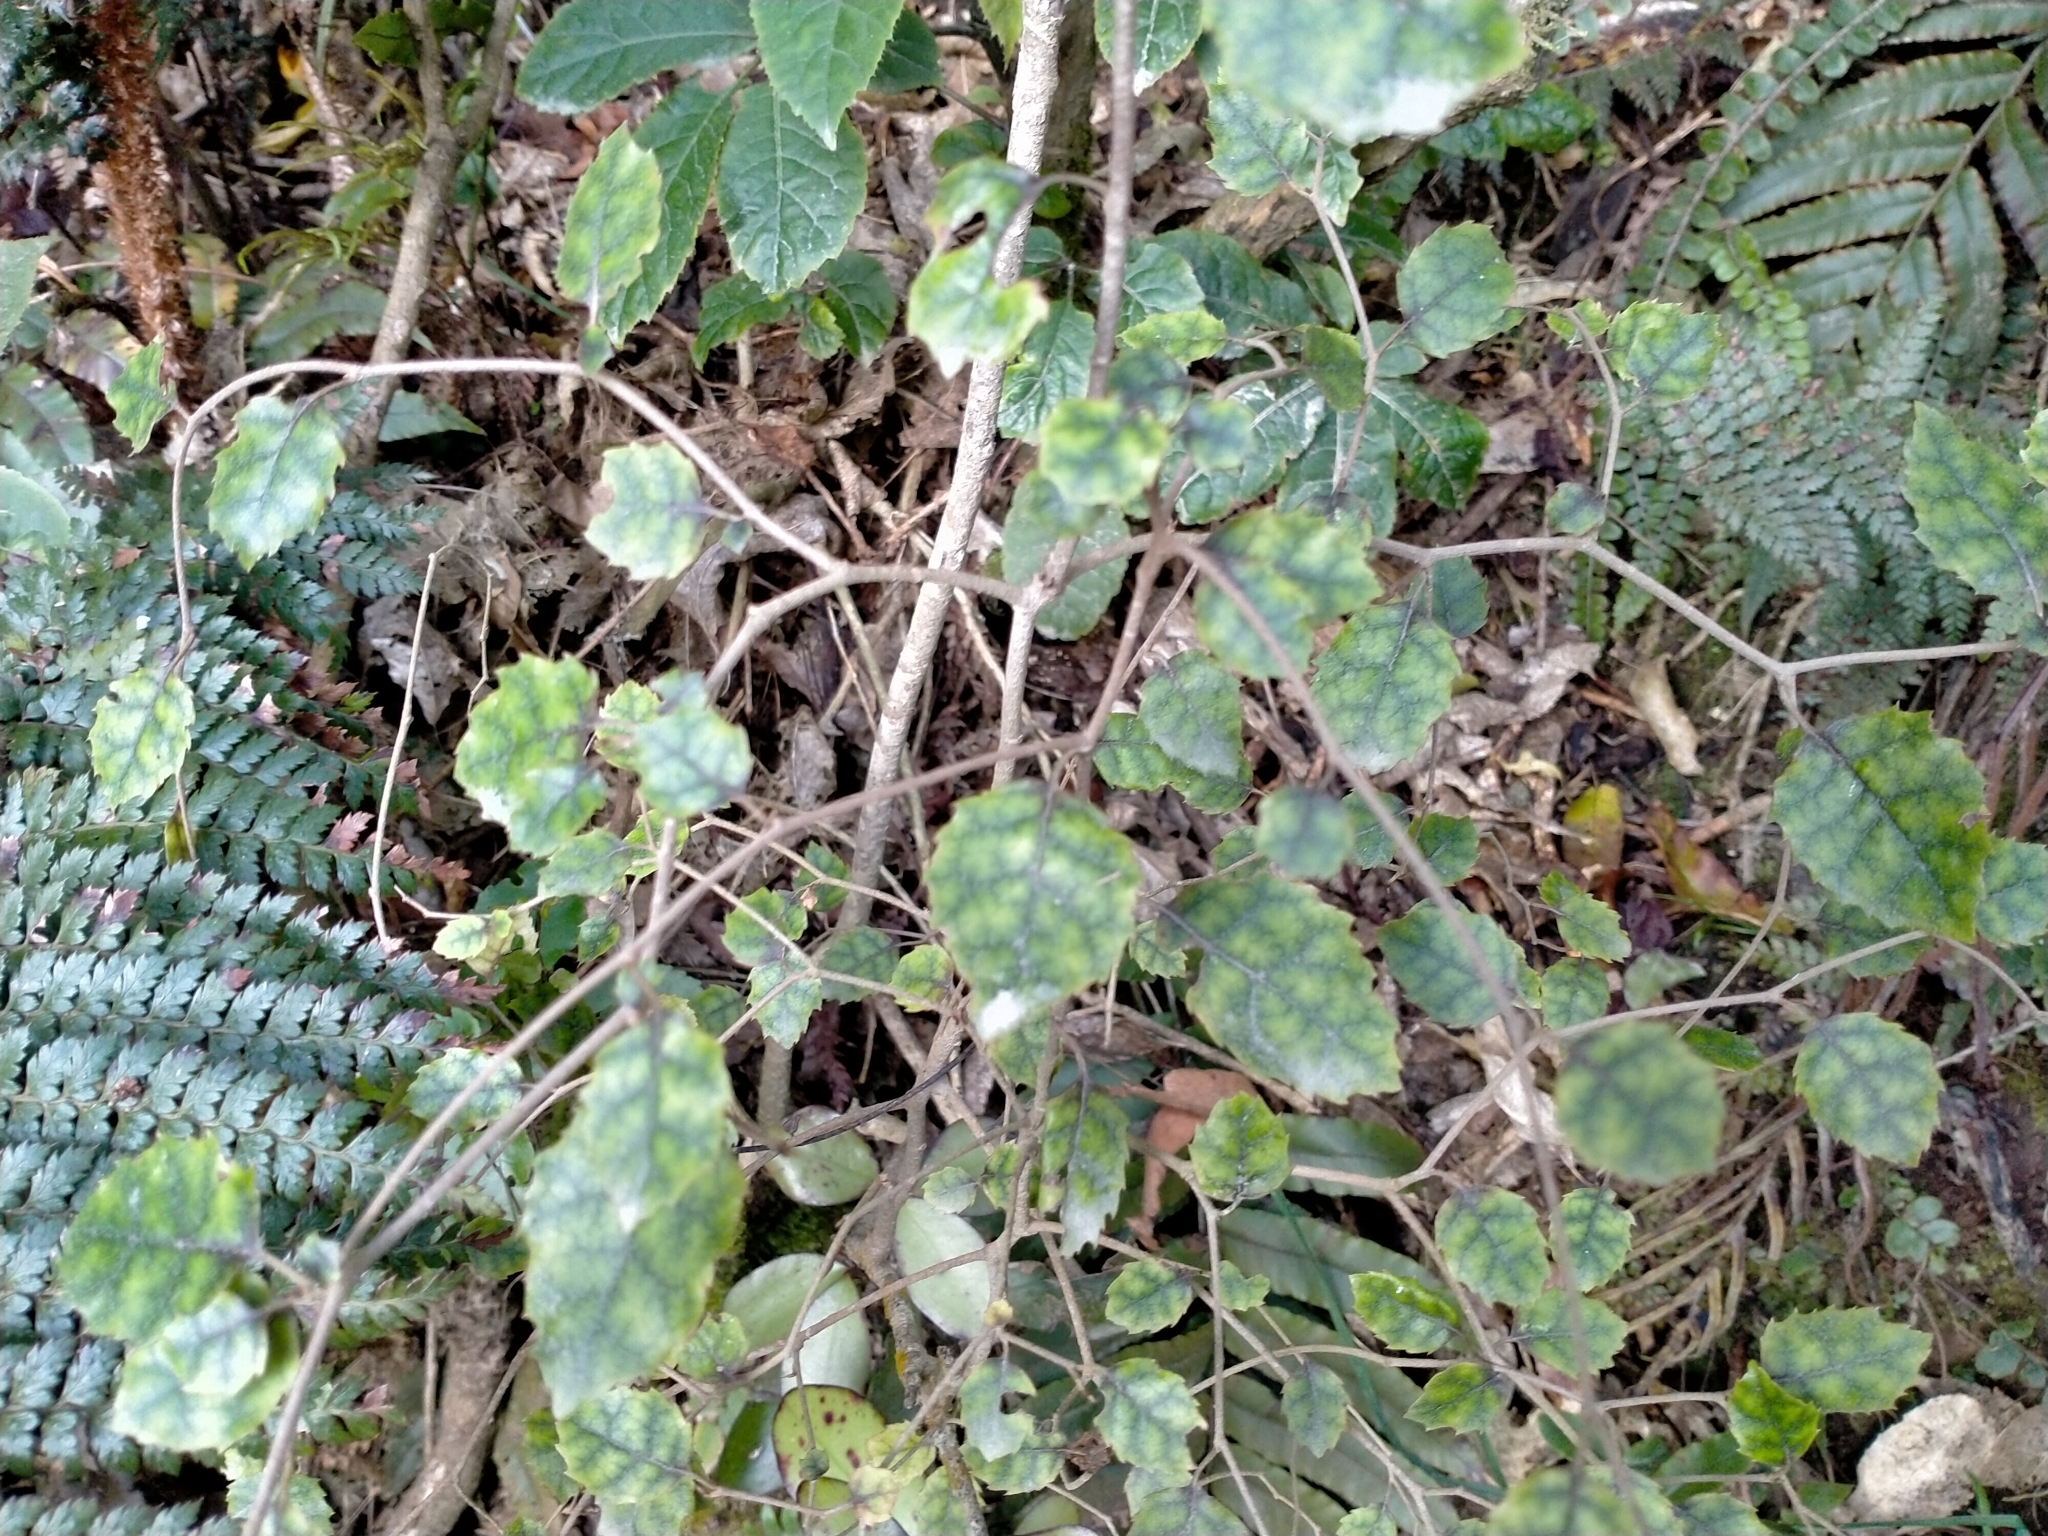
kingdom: Plantae
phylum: Tracheophyta
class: Magnoliopsida
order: Asterales
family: Rousseaceae
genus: Carpodetus
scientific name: Carpodetus serratus
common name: White mapau
